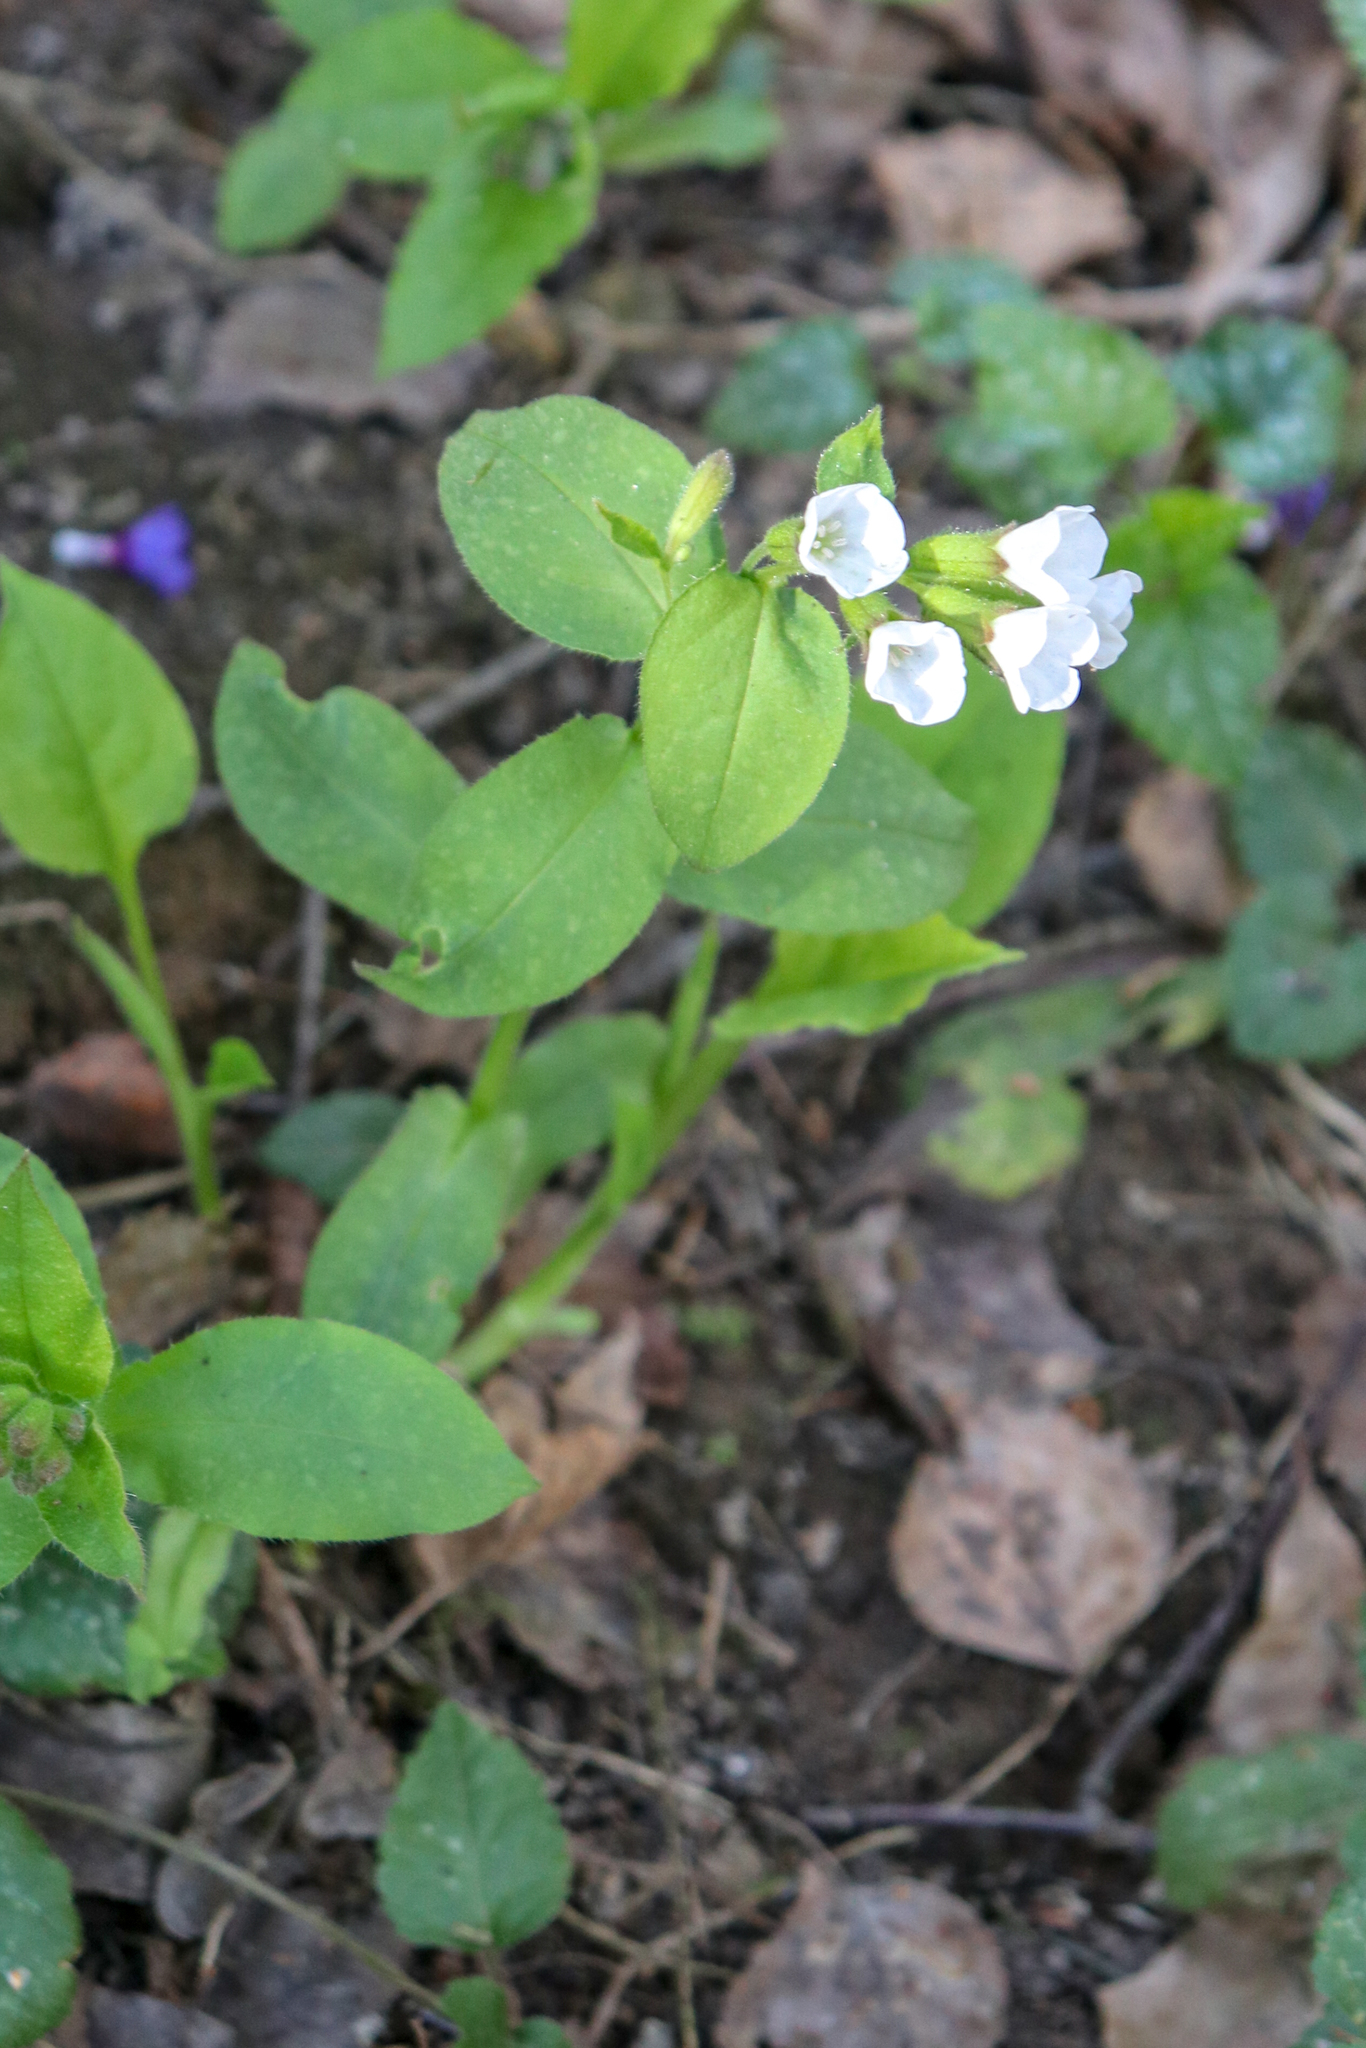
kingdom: Plantae
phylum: Tracheophyta
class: Magnoliopsida
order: Boraginales
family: Boraginaceae
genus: Pulmonaria
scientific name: Pulmonaria obscura
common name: Suffolk lungwort
